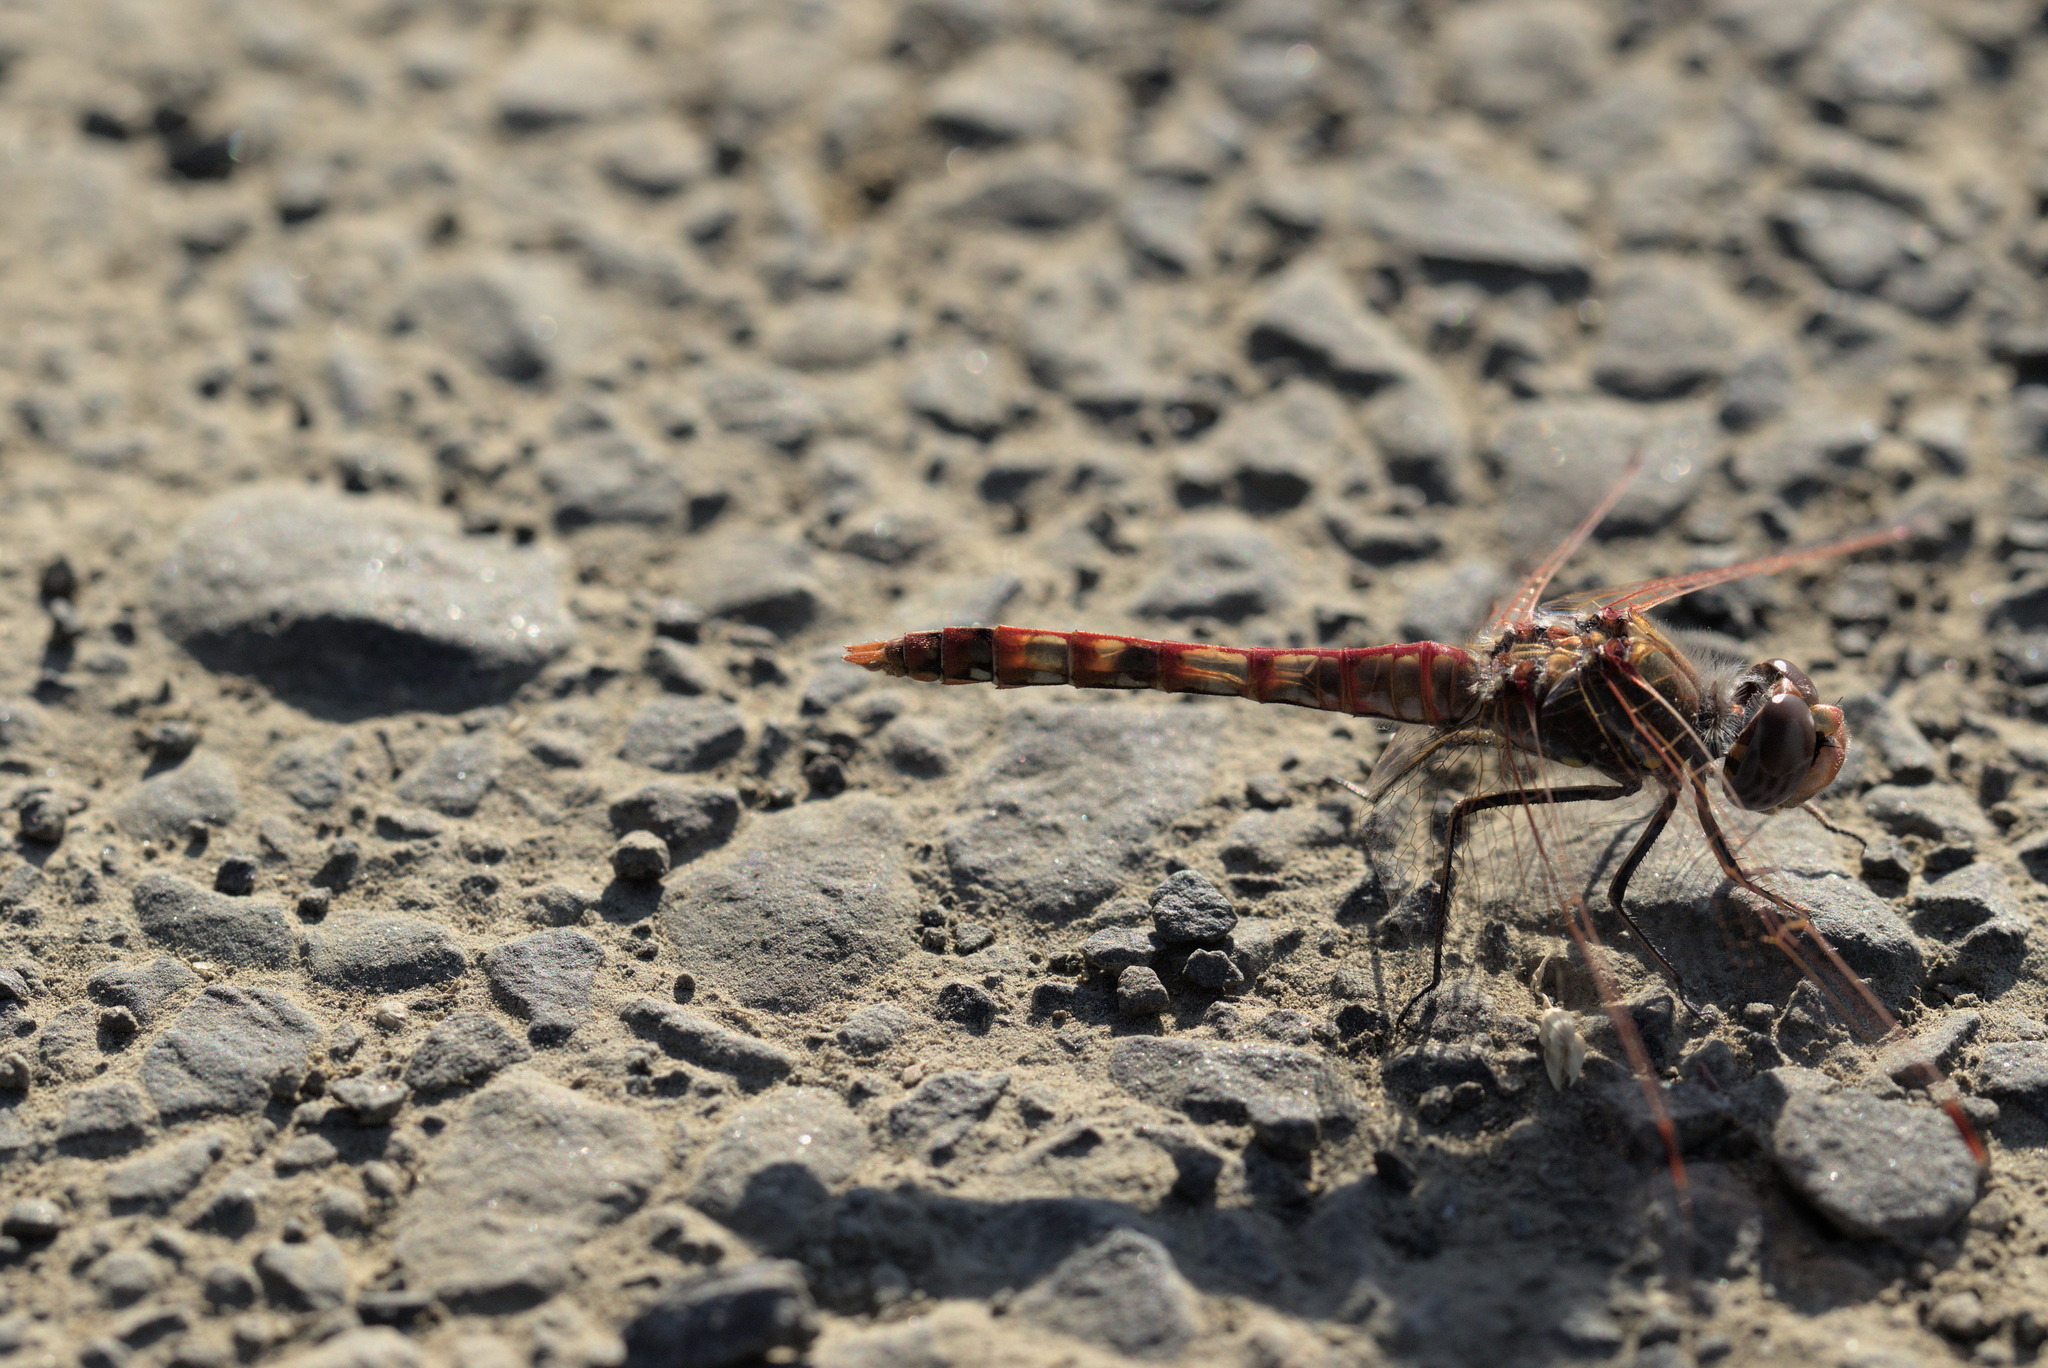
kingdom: Animalia
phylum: Arthropoda
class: Insecta
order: Odonata
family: Libellulidae
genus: Sympetrum
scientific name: Sympetrum corruptum
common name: Variegated meadowhawk
